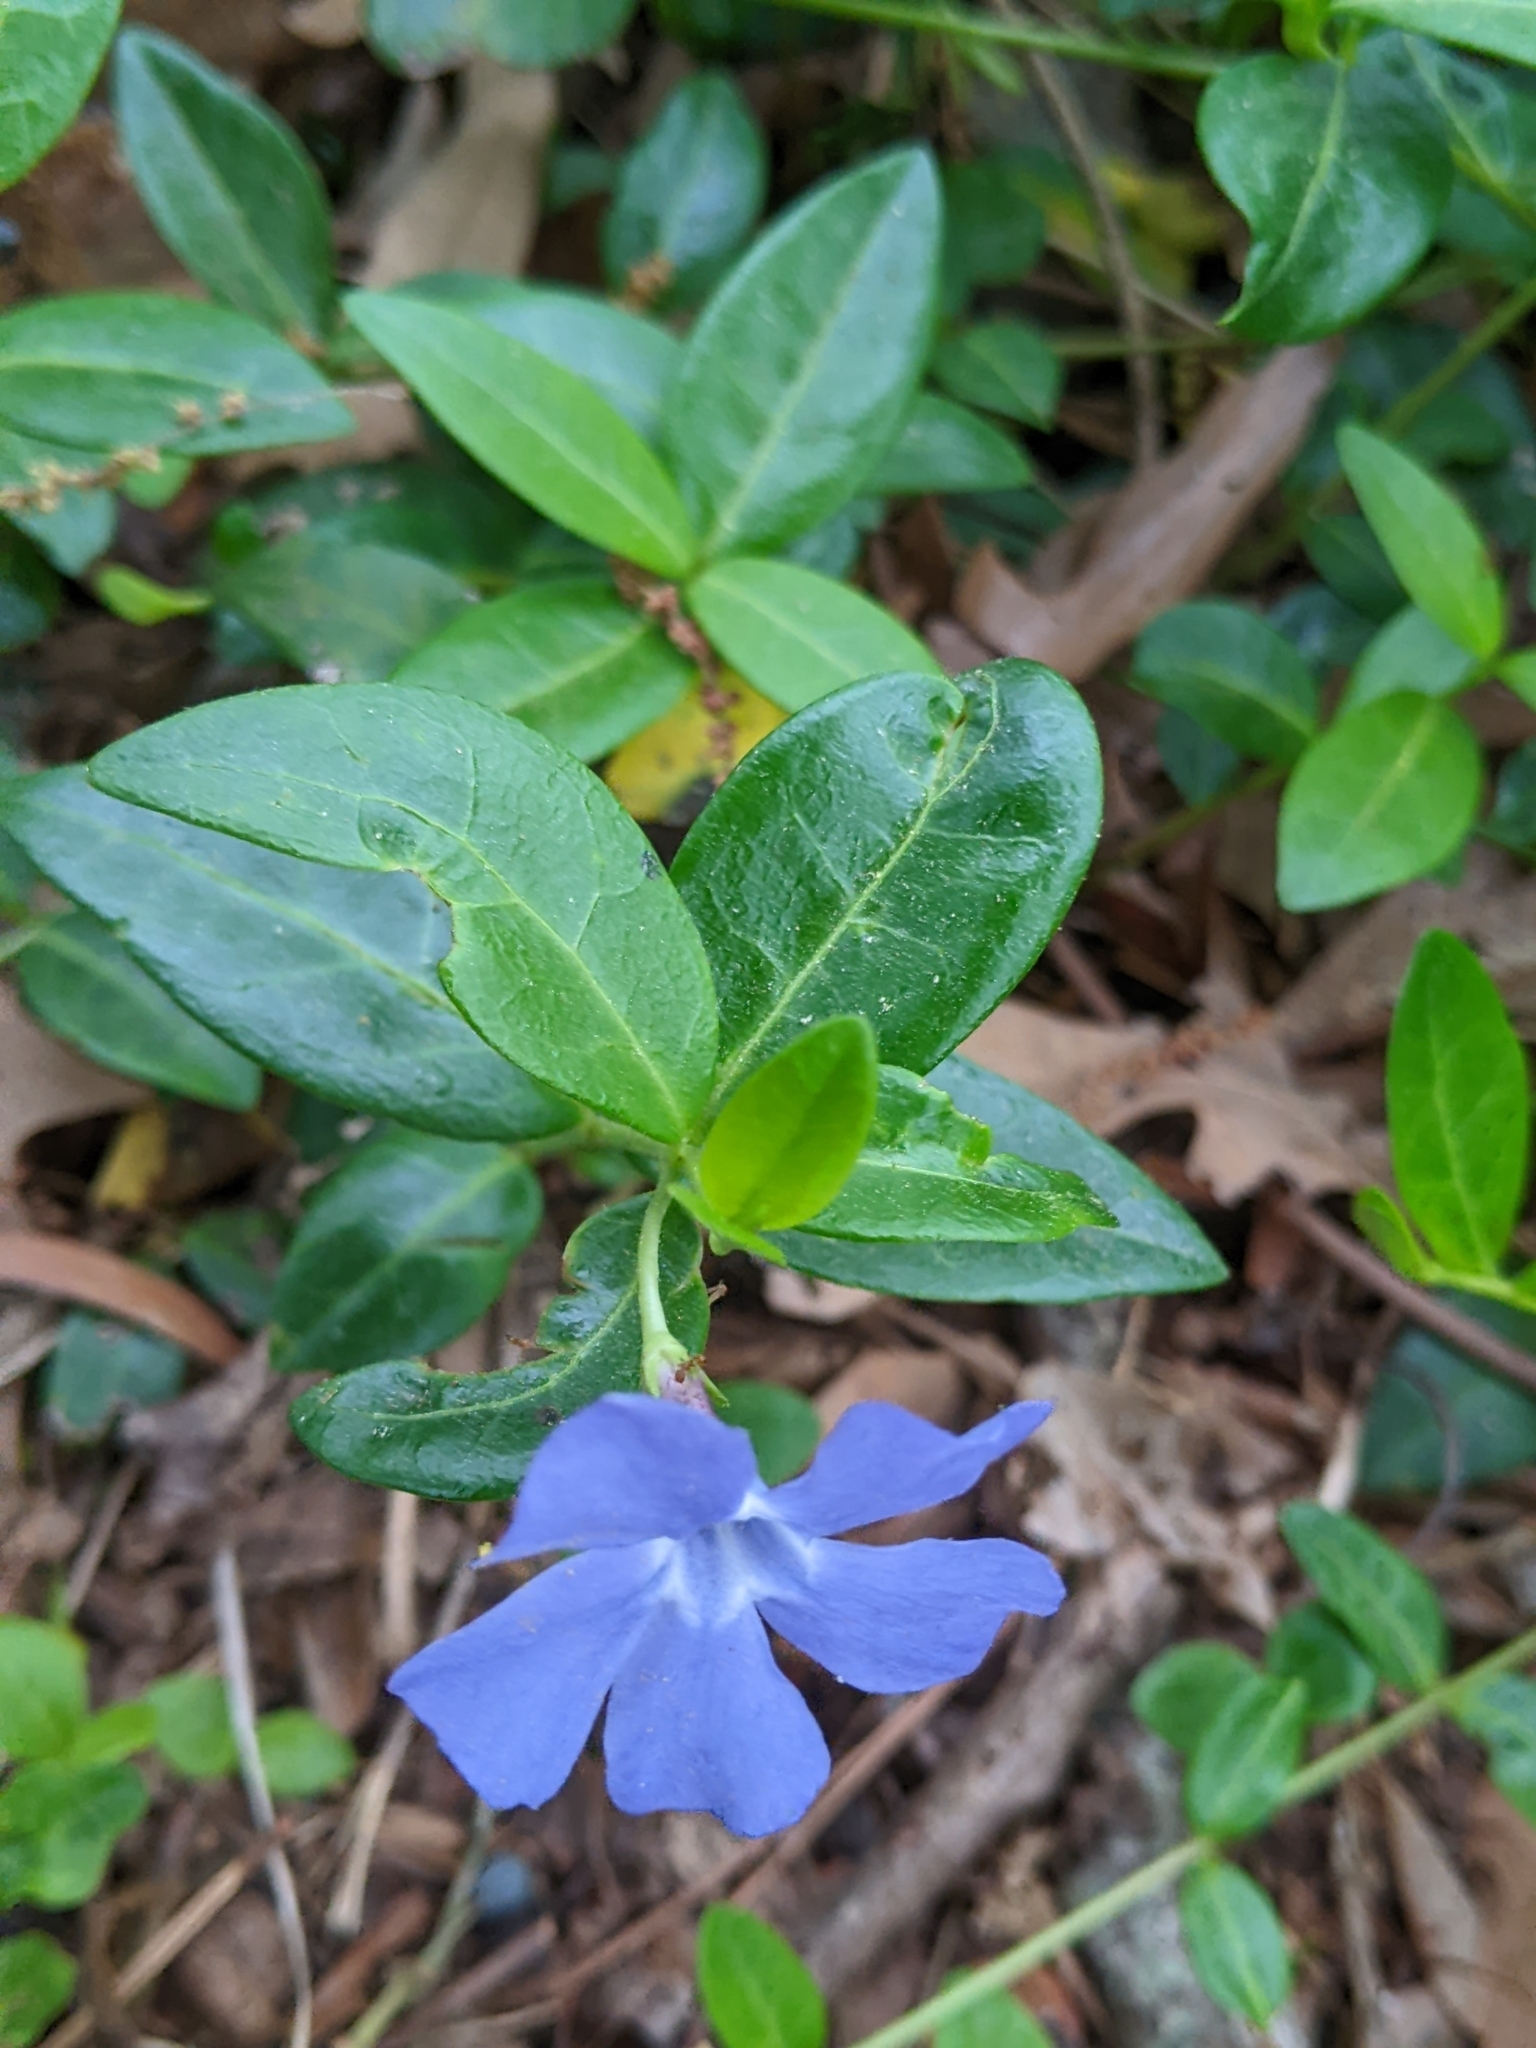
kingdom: Plantae
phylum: Tracheophyta
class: Magnoliopsida
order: Gentianales
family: Apocynaceae
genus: Vinca
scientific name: Vinca minor
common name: Lesser periwinkle
